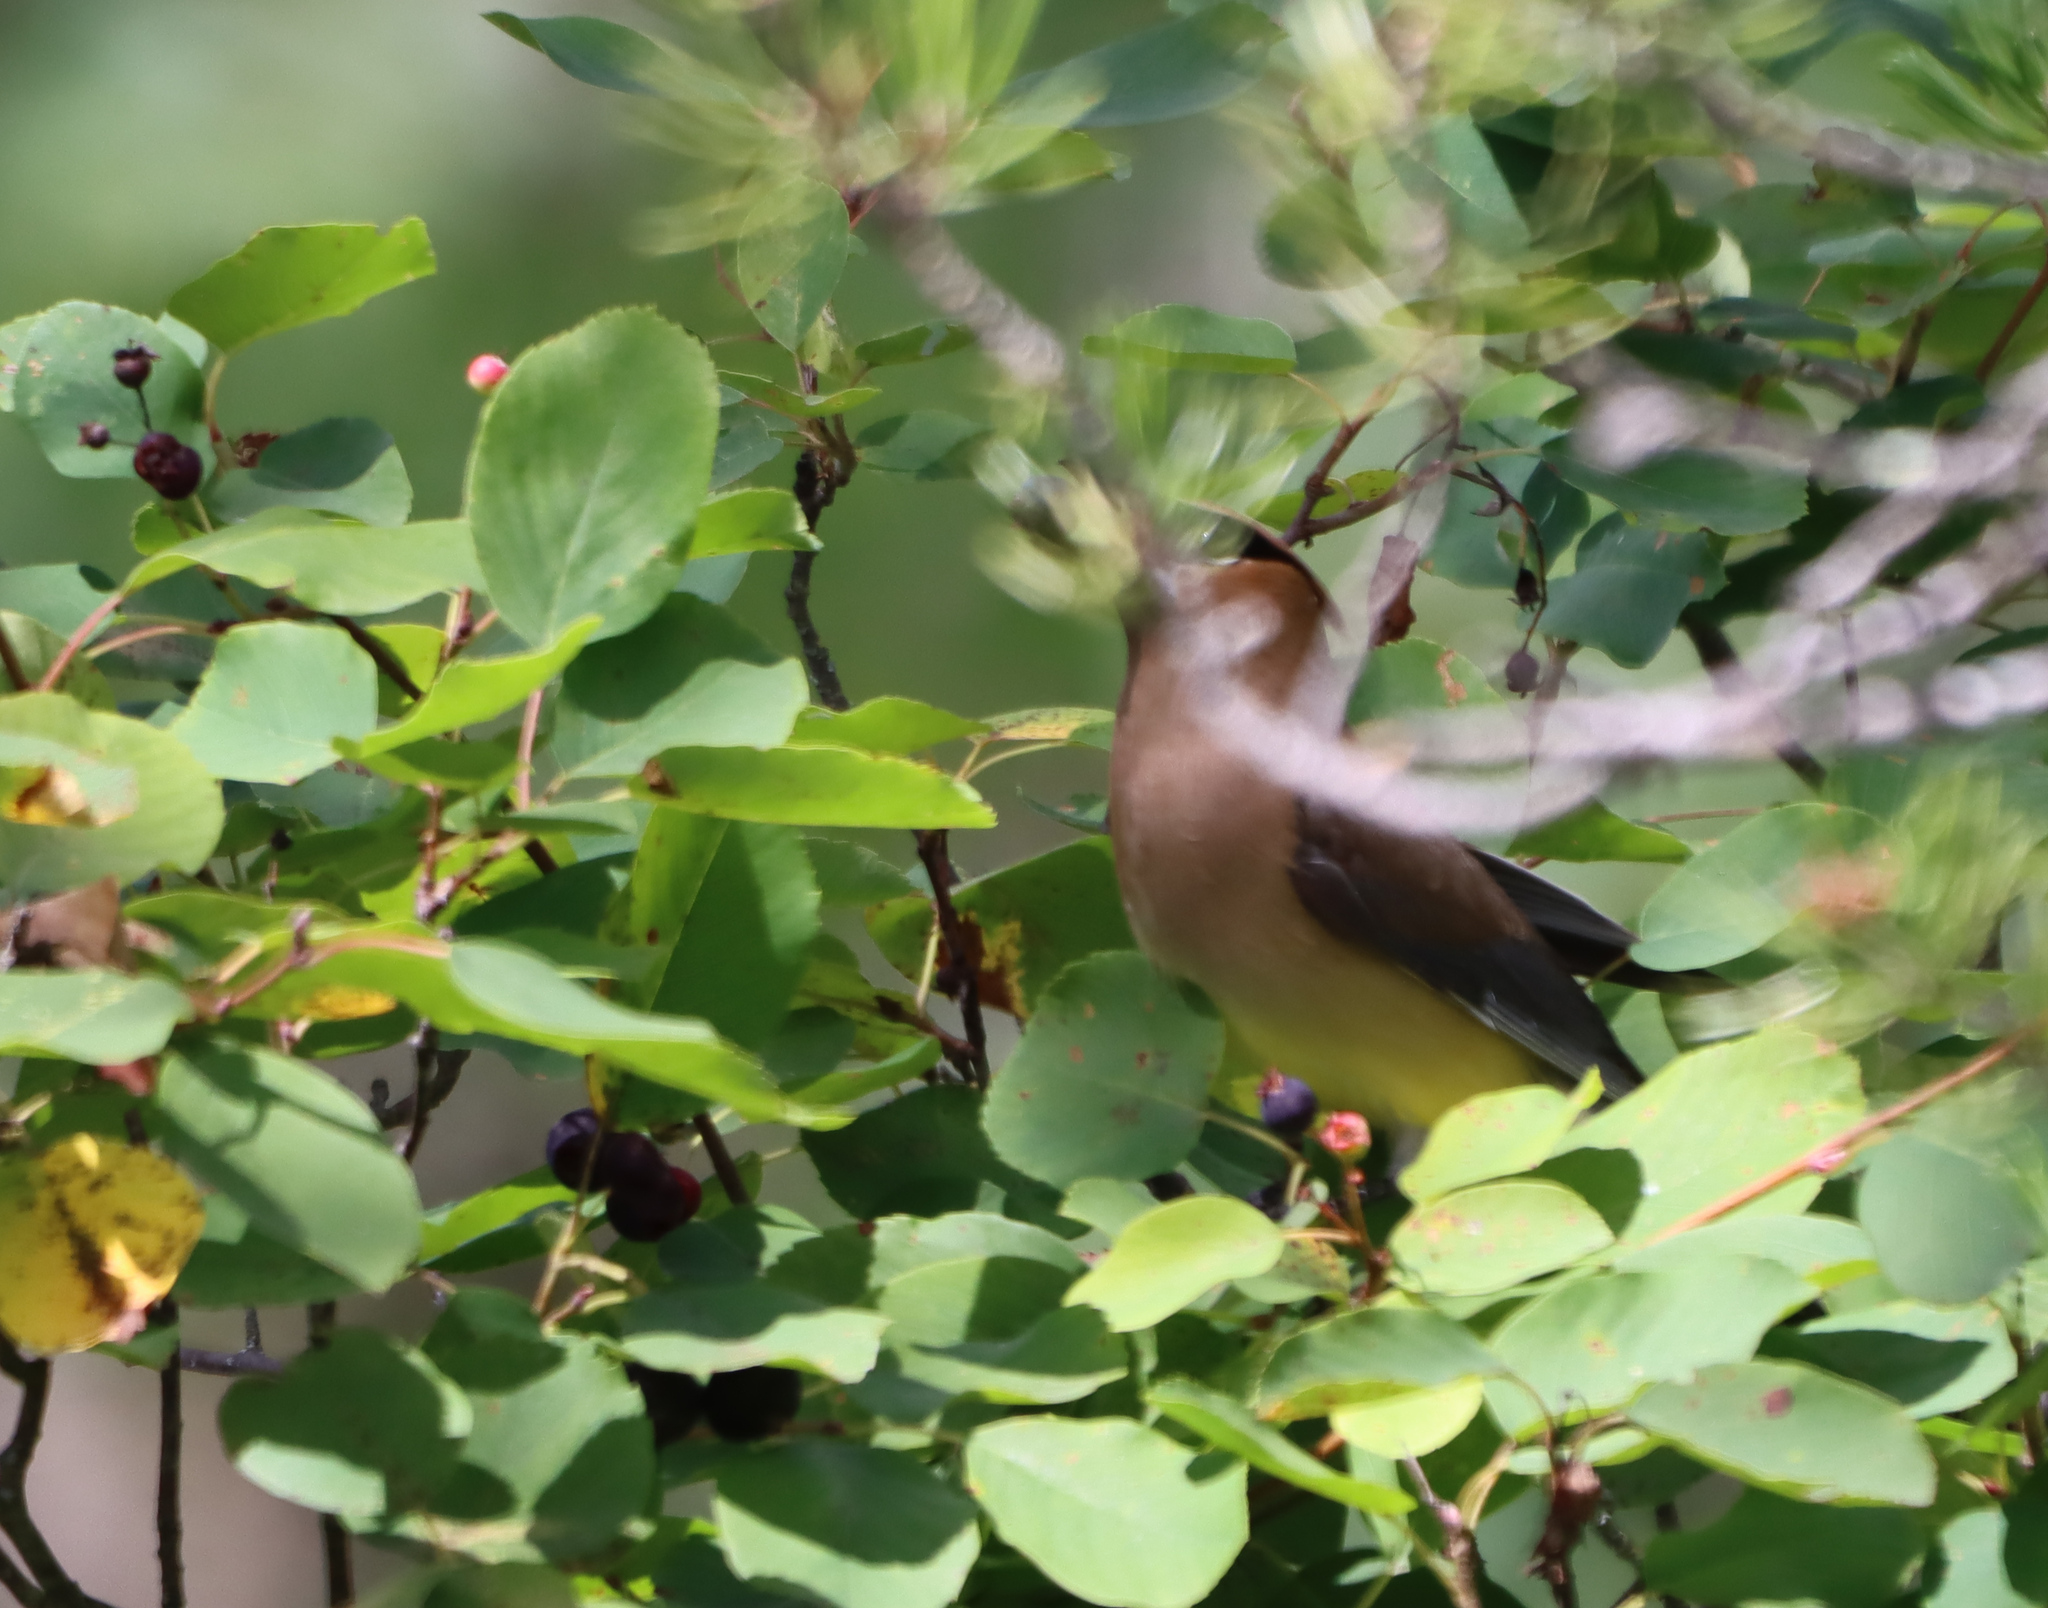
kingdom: Animalia
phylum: Chordata
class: Aves
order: Passeriformes
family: Bombycillidae
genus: Bombycilla
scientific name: Bombycilla cedrorum
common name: Cedar waxwing
